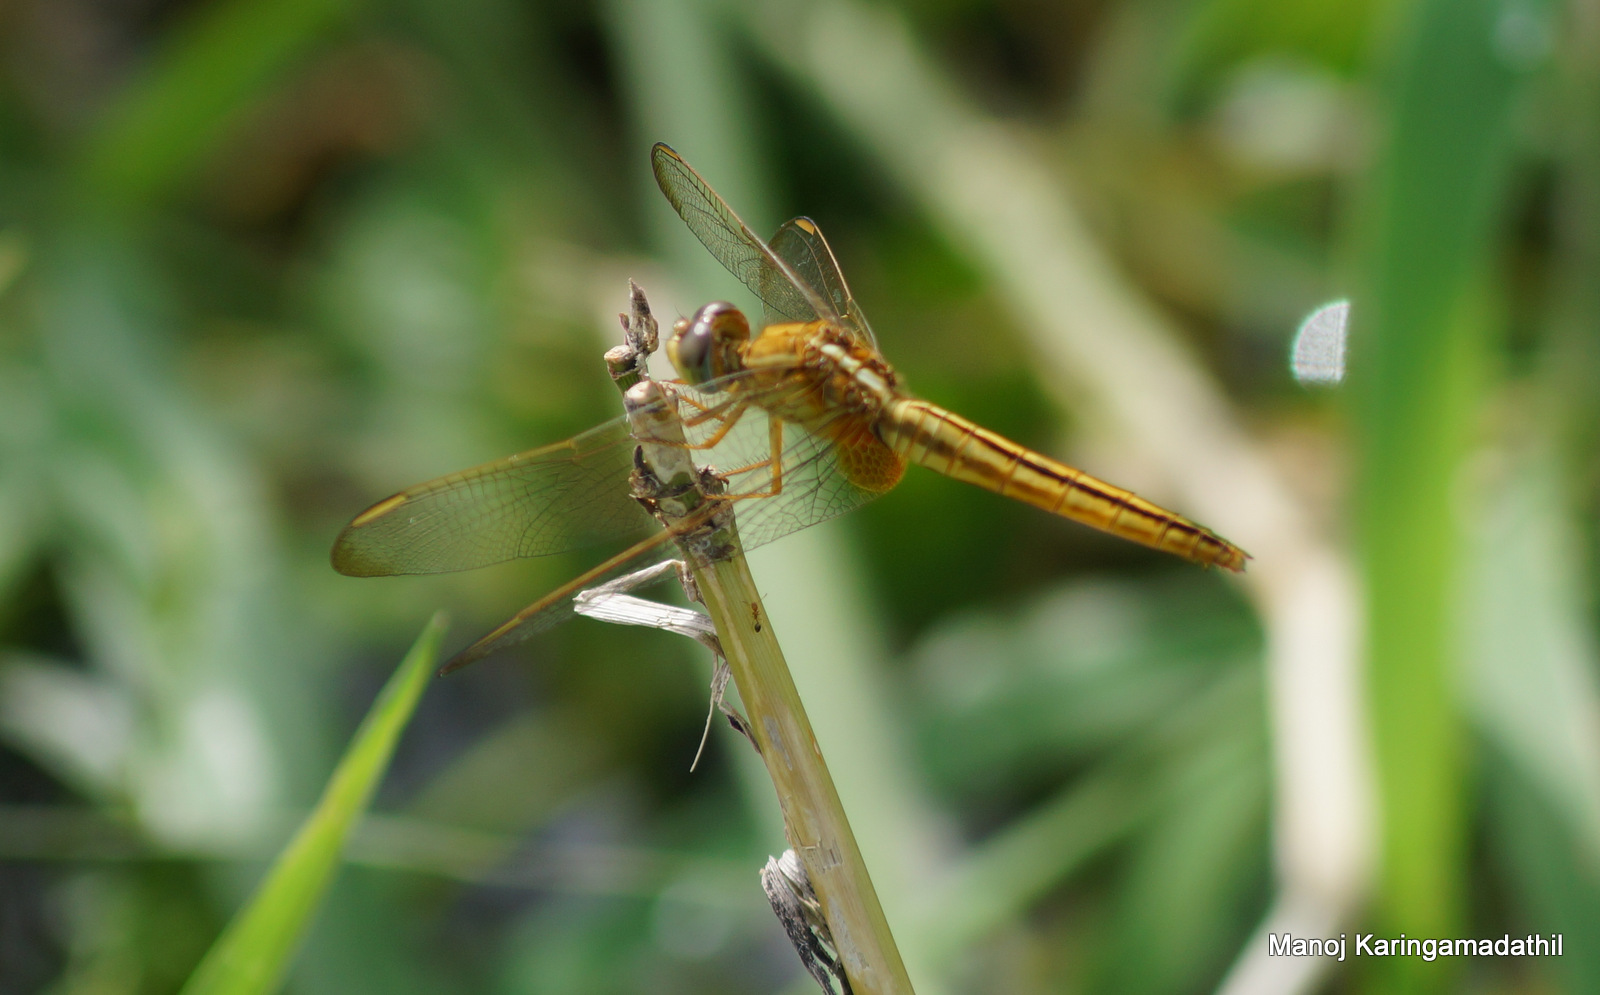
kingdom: Animalia
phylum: Arthropoda
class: Insecta
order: Odonata
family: Libellulidae
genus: Crocothemis
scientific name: Crocothemis servilia
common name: Scarlet skimmer
